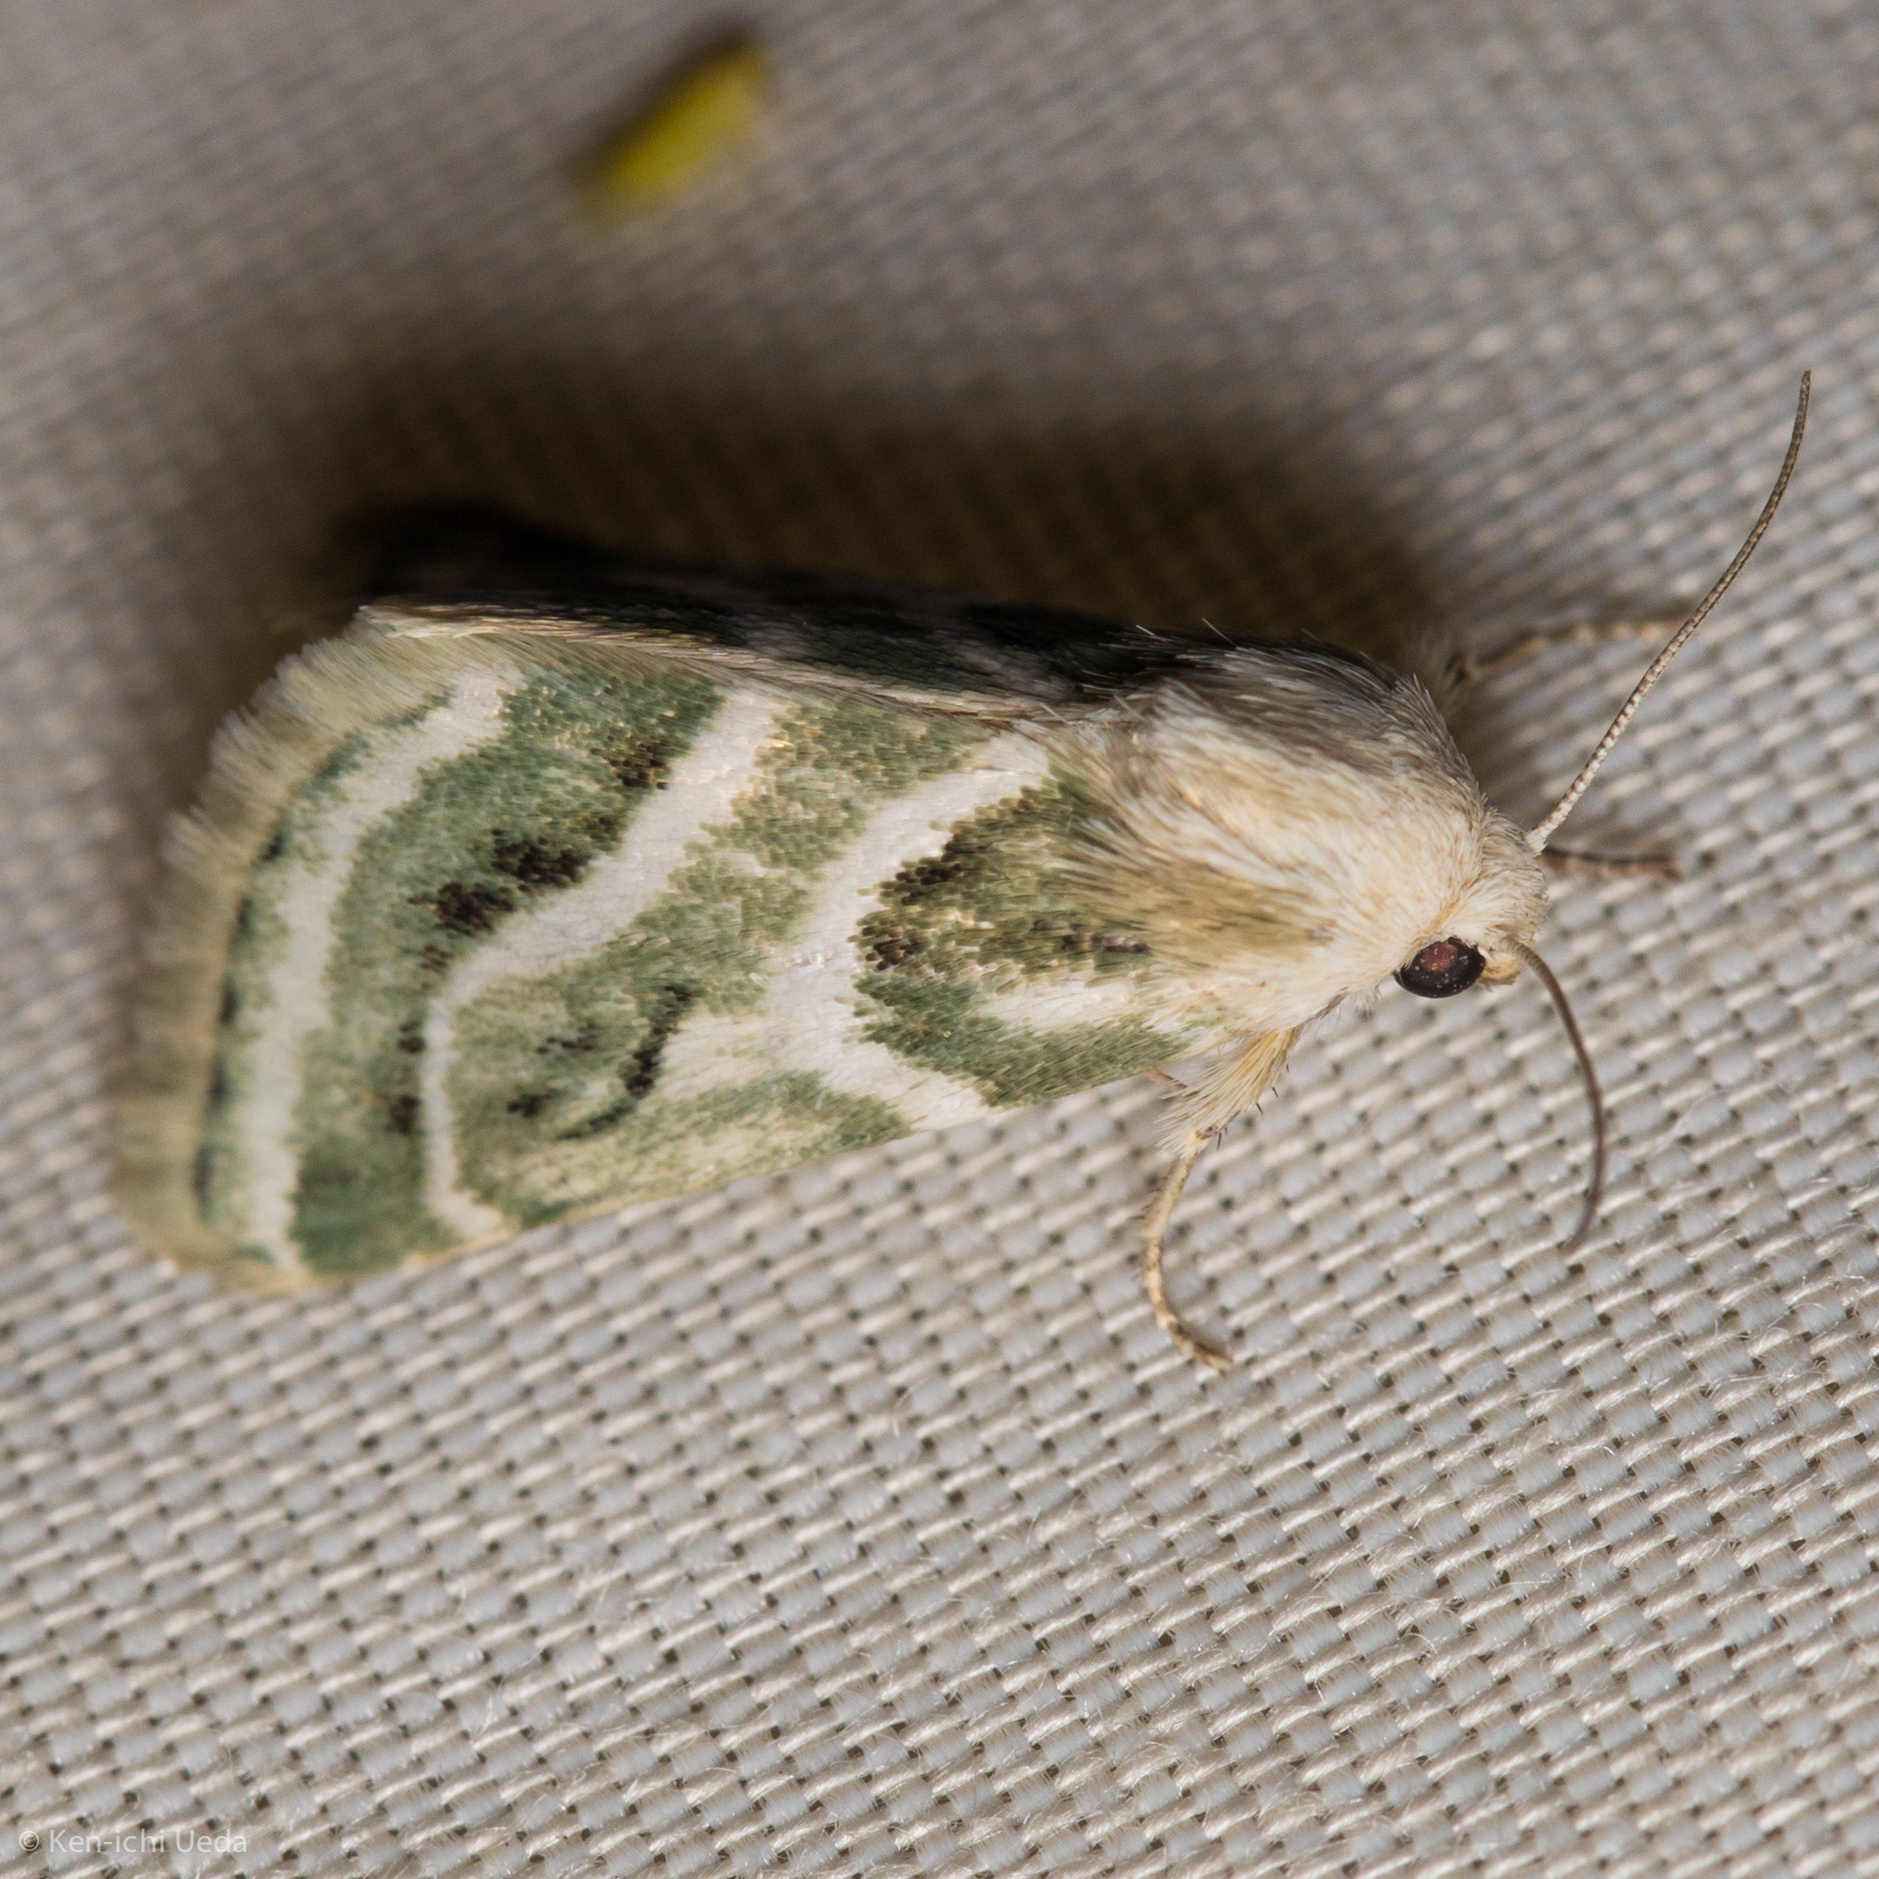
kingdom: Animalia
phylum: Arthropoda
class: Insecta
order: Lepidoptera
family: Noctuidae
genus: Schinia
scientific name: Schinia accessa
